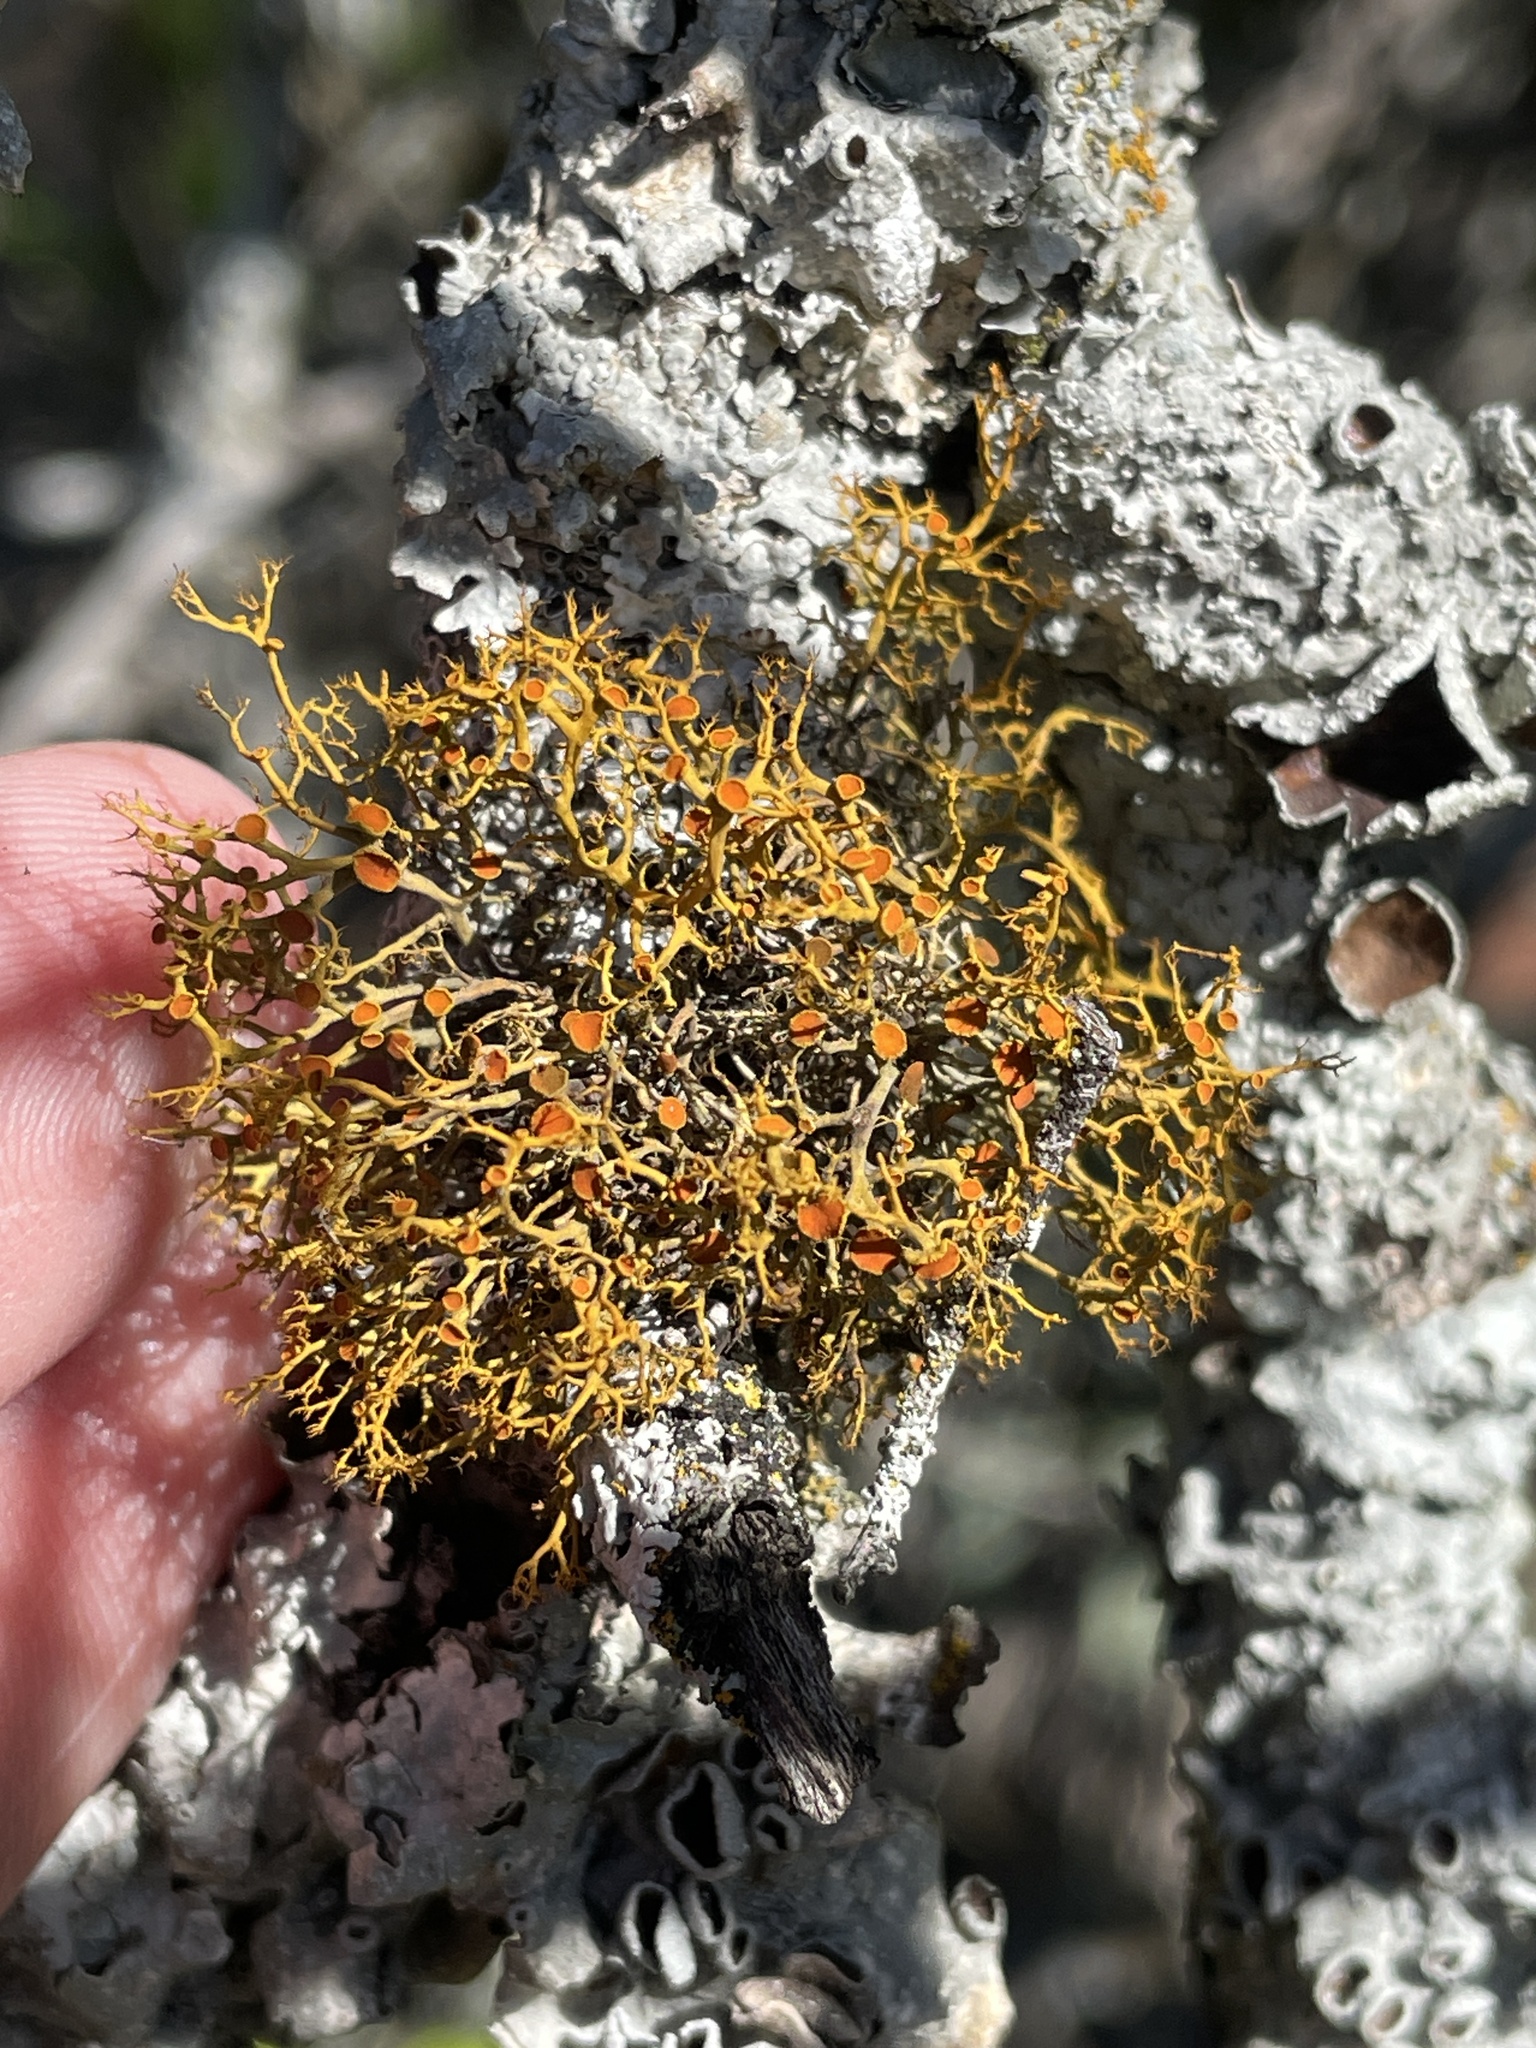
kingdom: Fungi
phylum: Ascomycota
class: Lecanoromycetes
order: Teloschistales
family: Teloschistaceae
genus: Teloschistes
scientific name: Teloschistes exilis
